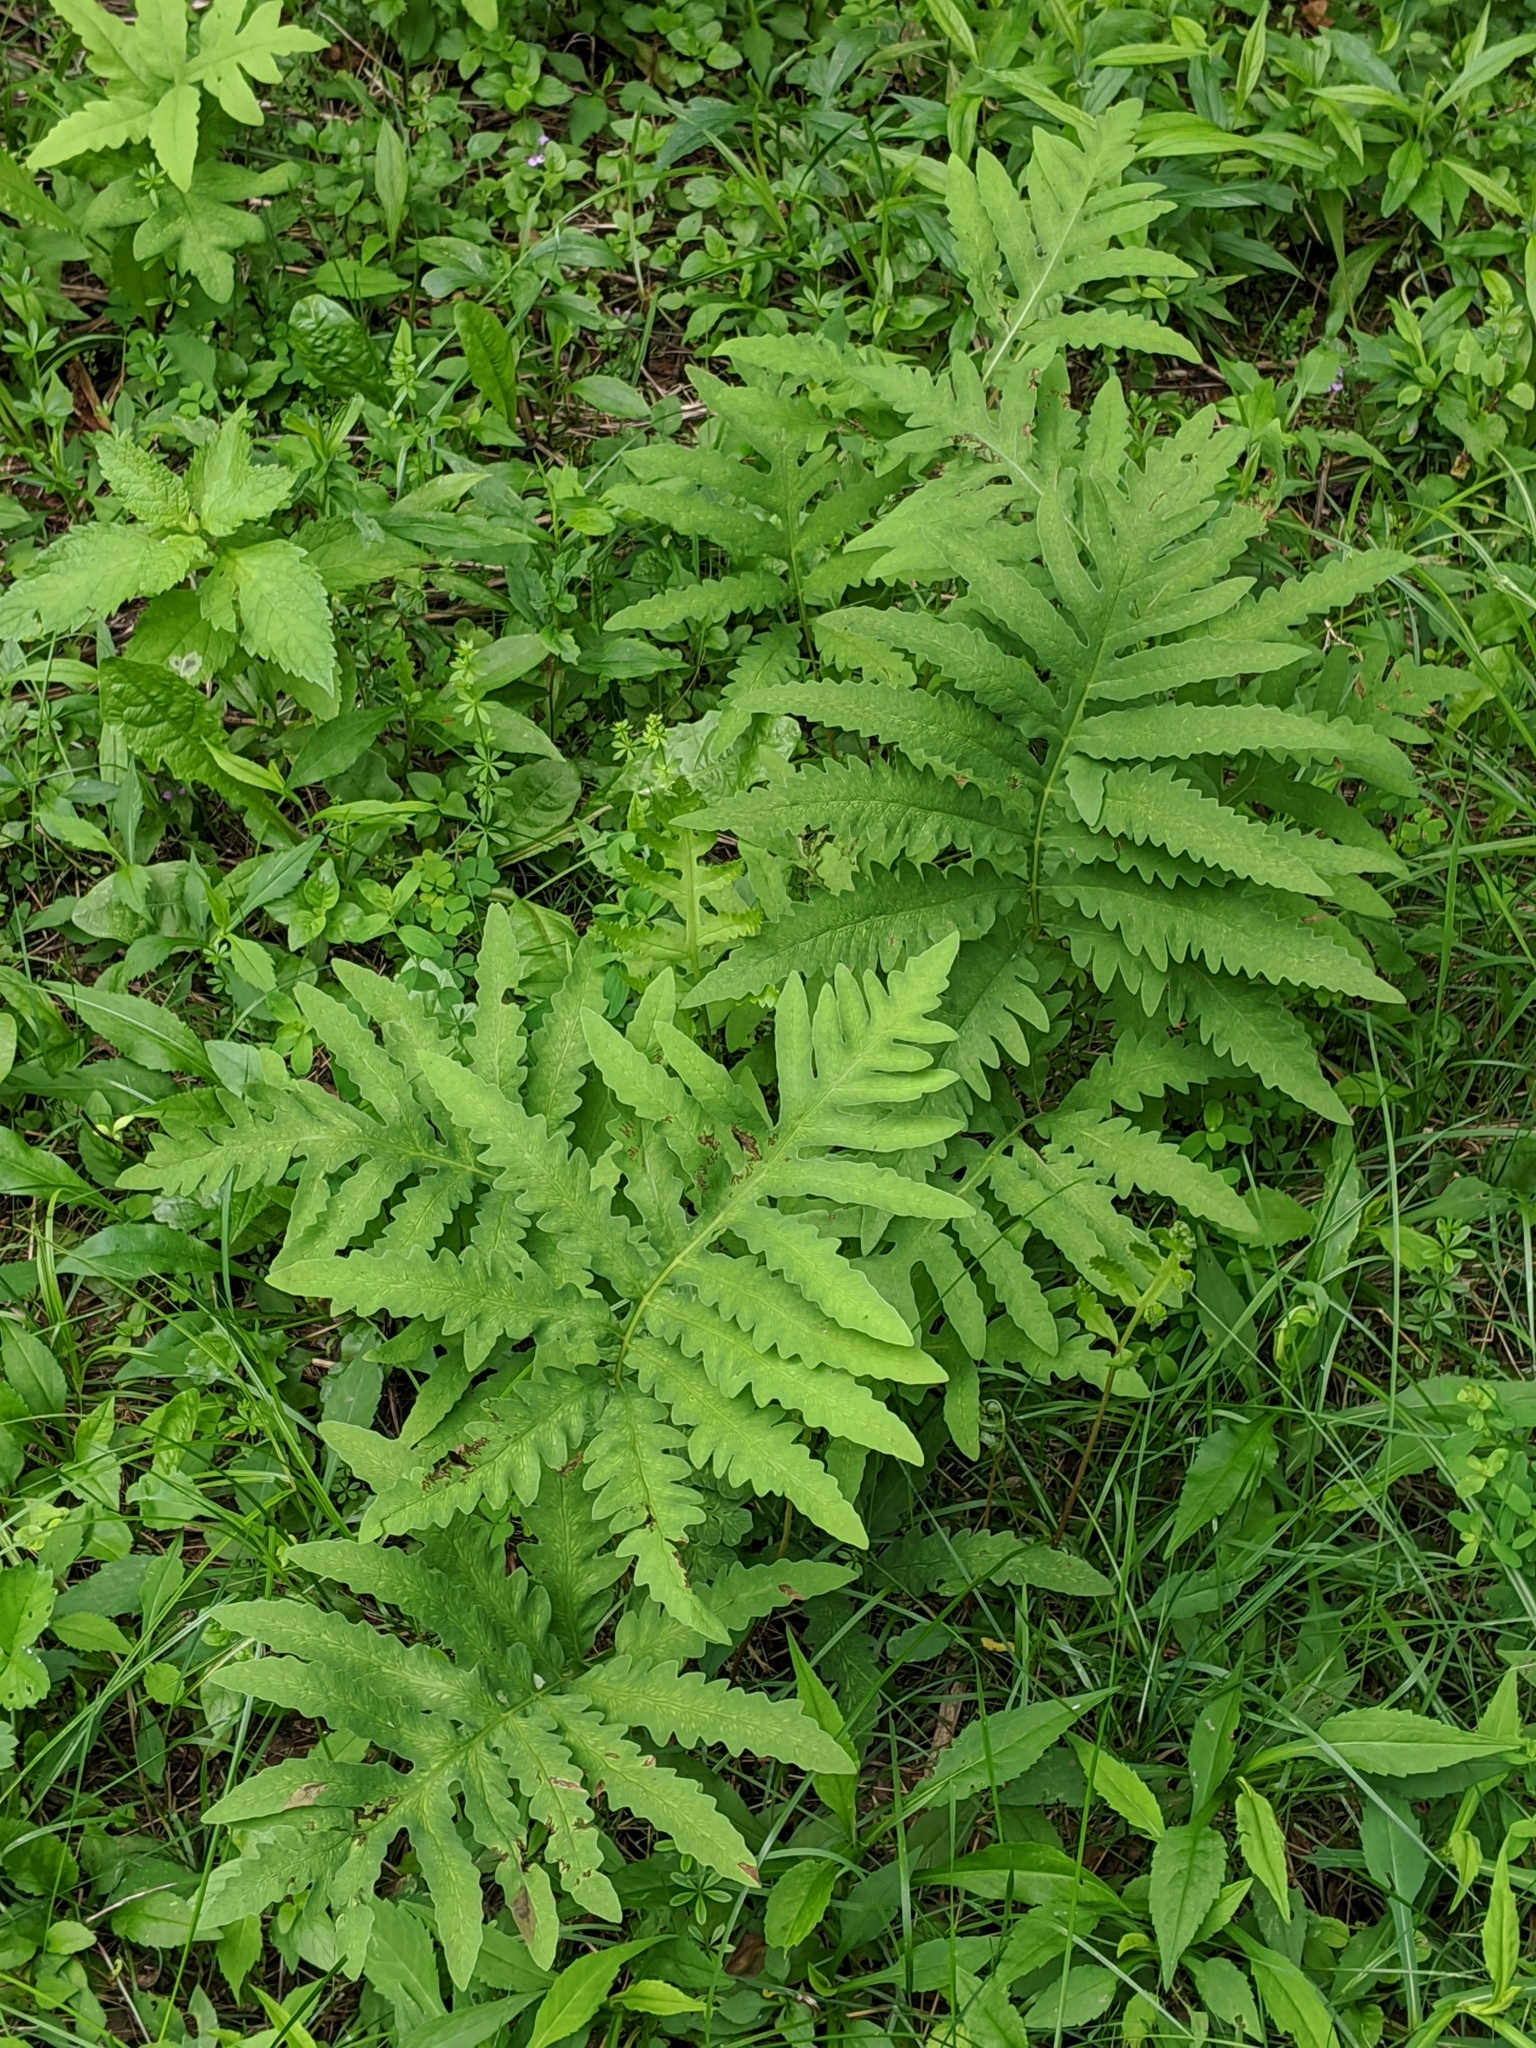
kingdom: Plantae
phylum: Tracheophyta
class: Polypodiopsida
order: Polypodiales
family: Onocleaceae
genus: Onoclea
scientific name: Onoclea sensibilis
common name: Sensitive fern
